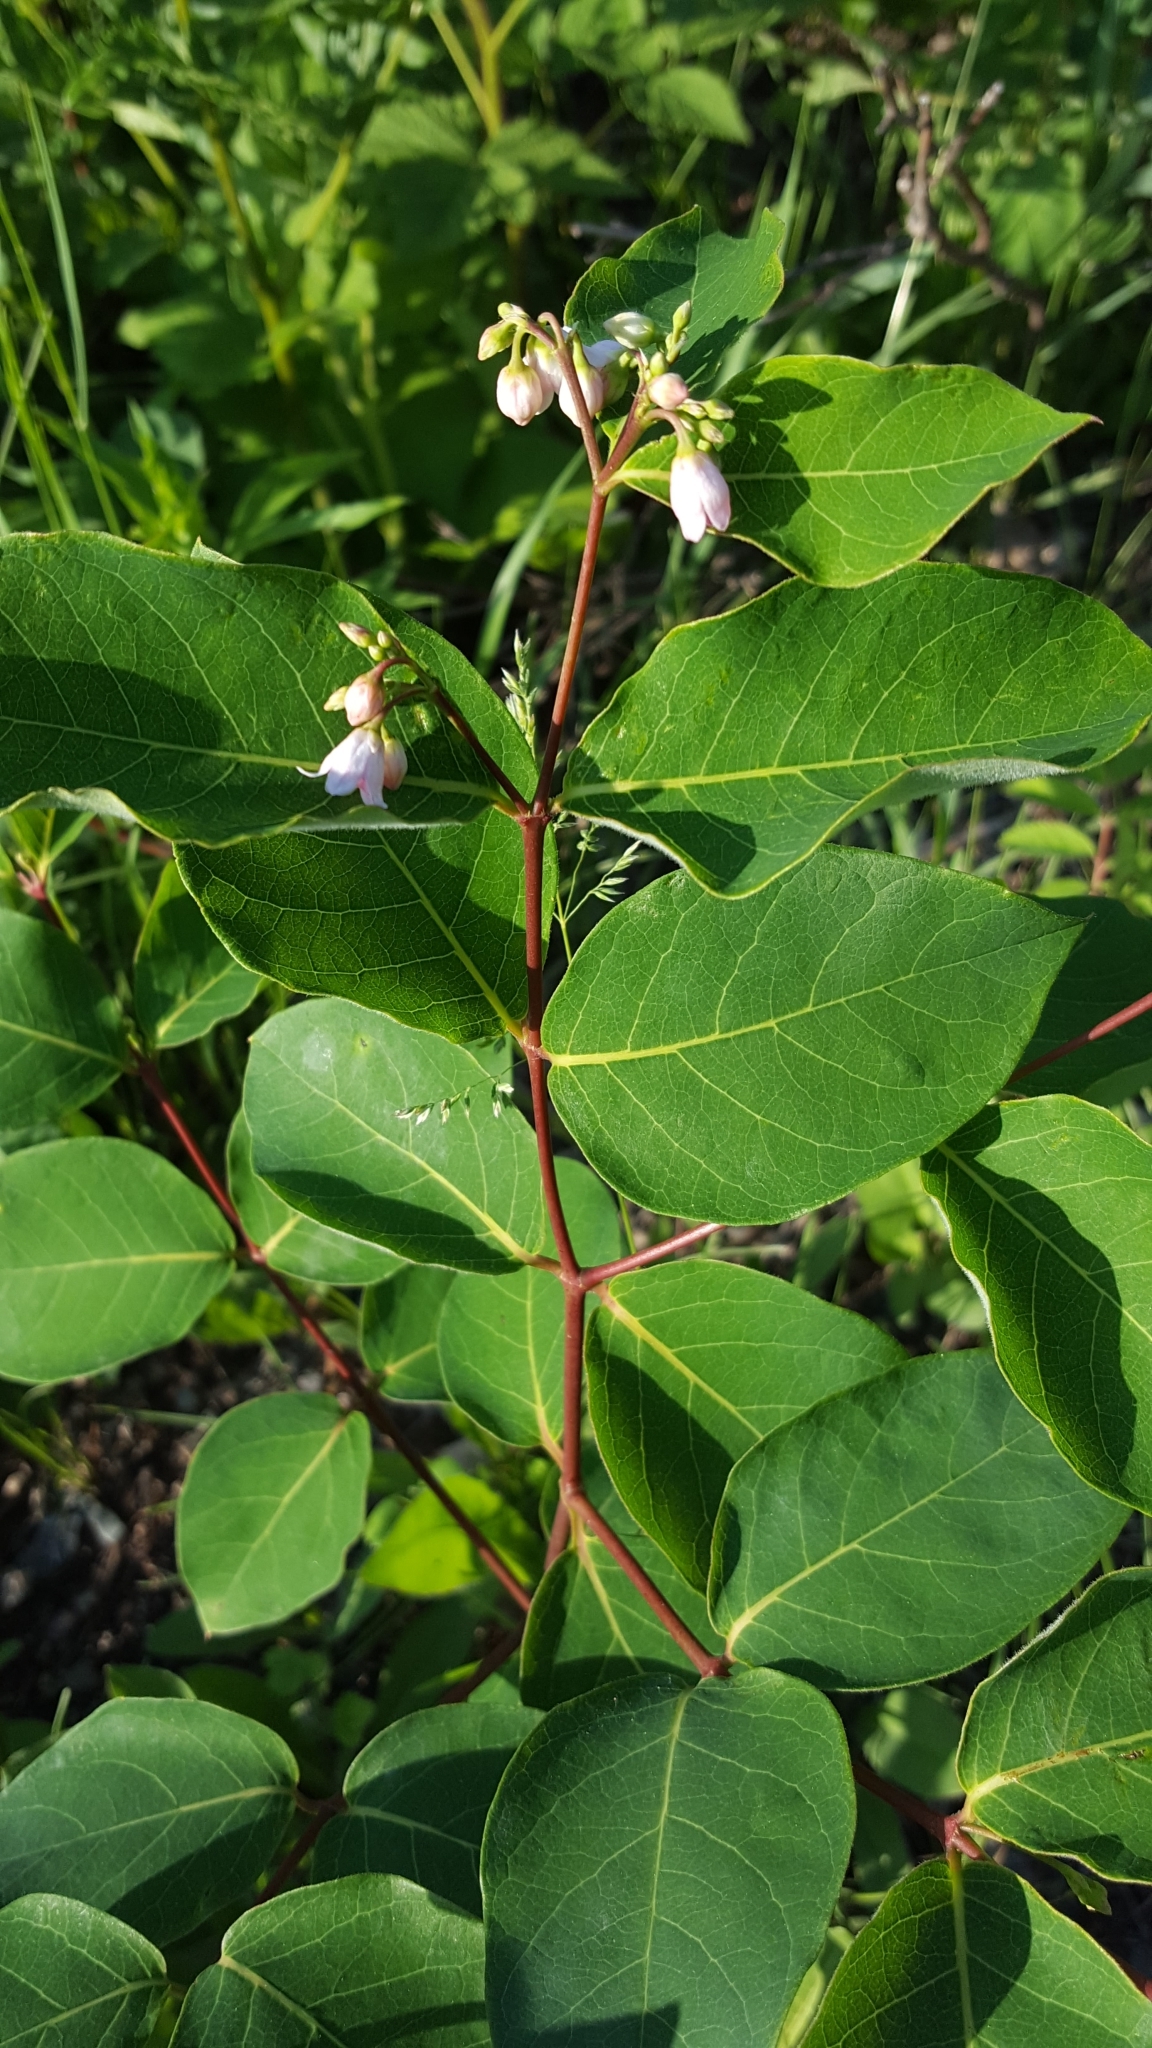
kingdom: Plantae
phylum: Tracheophyta
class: Magnoliopsida
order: Gentianales
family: Apocynaceae
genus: Apocynum
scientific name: Apocynum androsaemifolium
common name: Spreading dogbane
